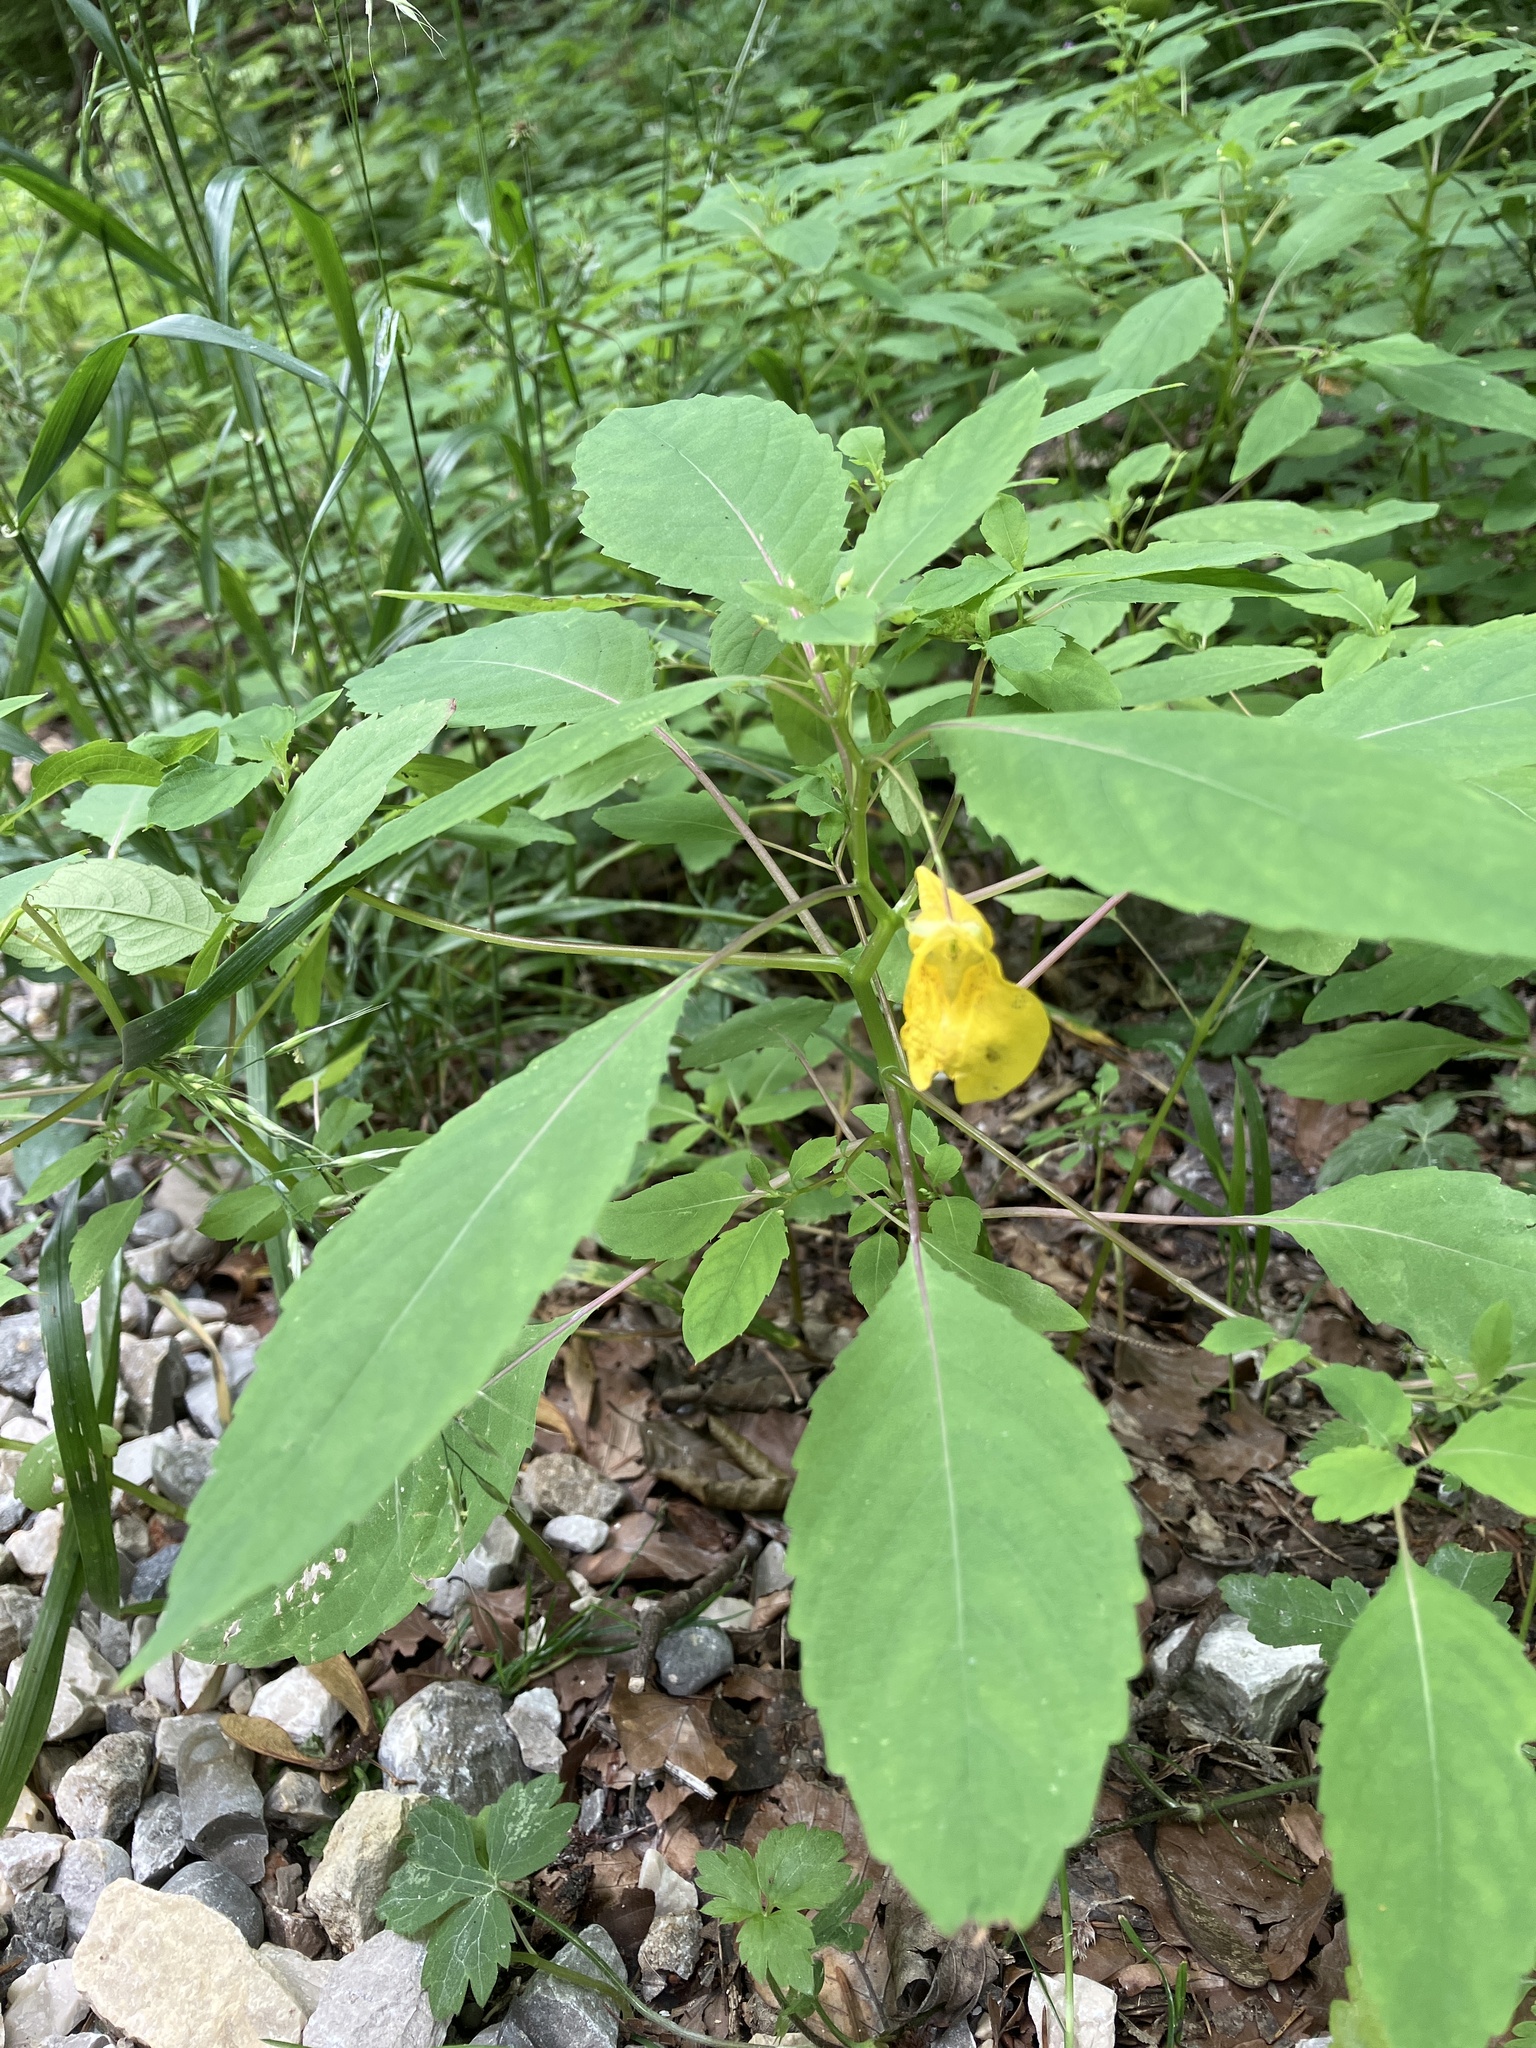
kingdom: Plantae
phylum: Tracheophyta
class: Magnoliopsida
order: Ericales
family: Balsaminaceae
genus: Impatiens
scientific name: Impatiens noli-tangere
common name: Touch-me-not balsam
